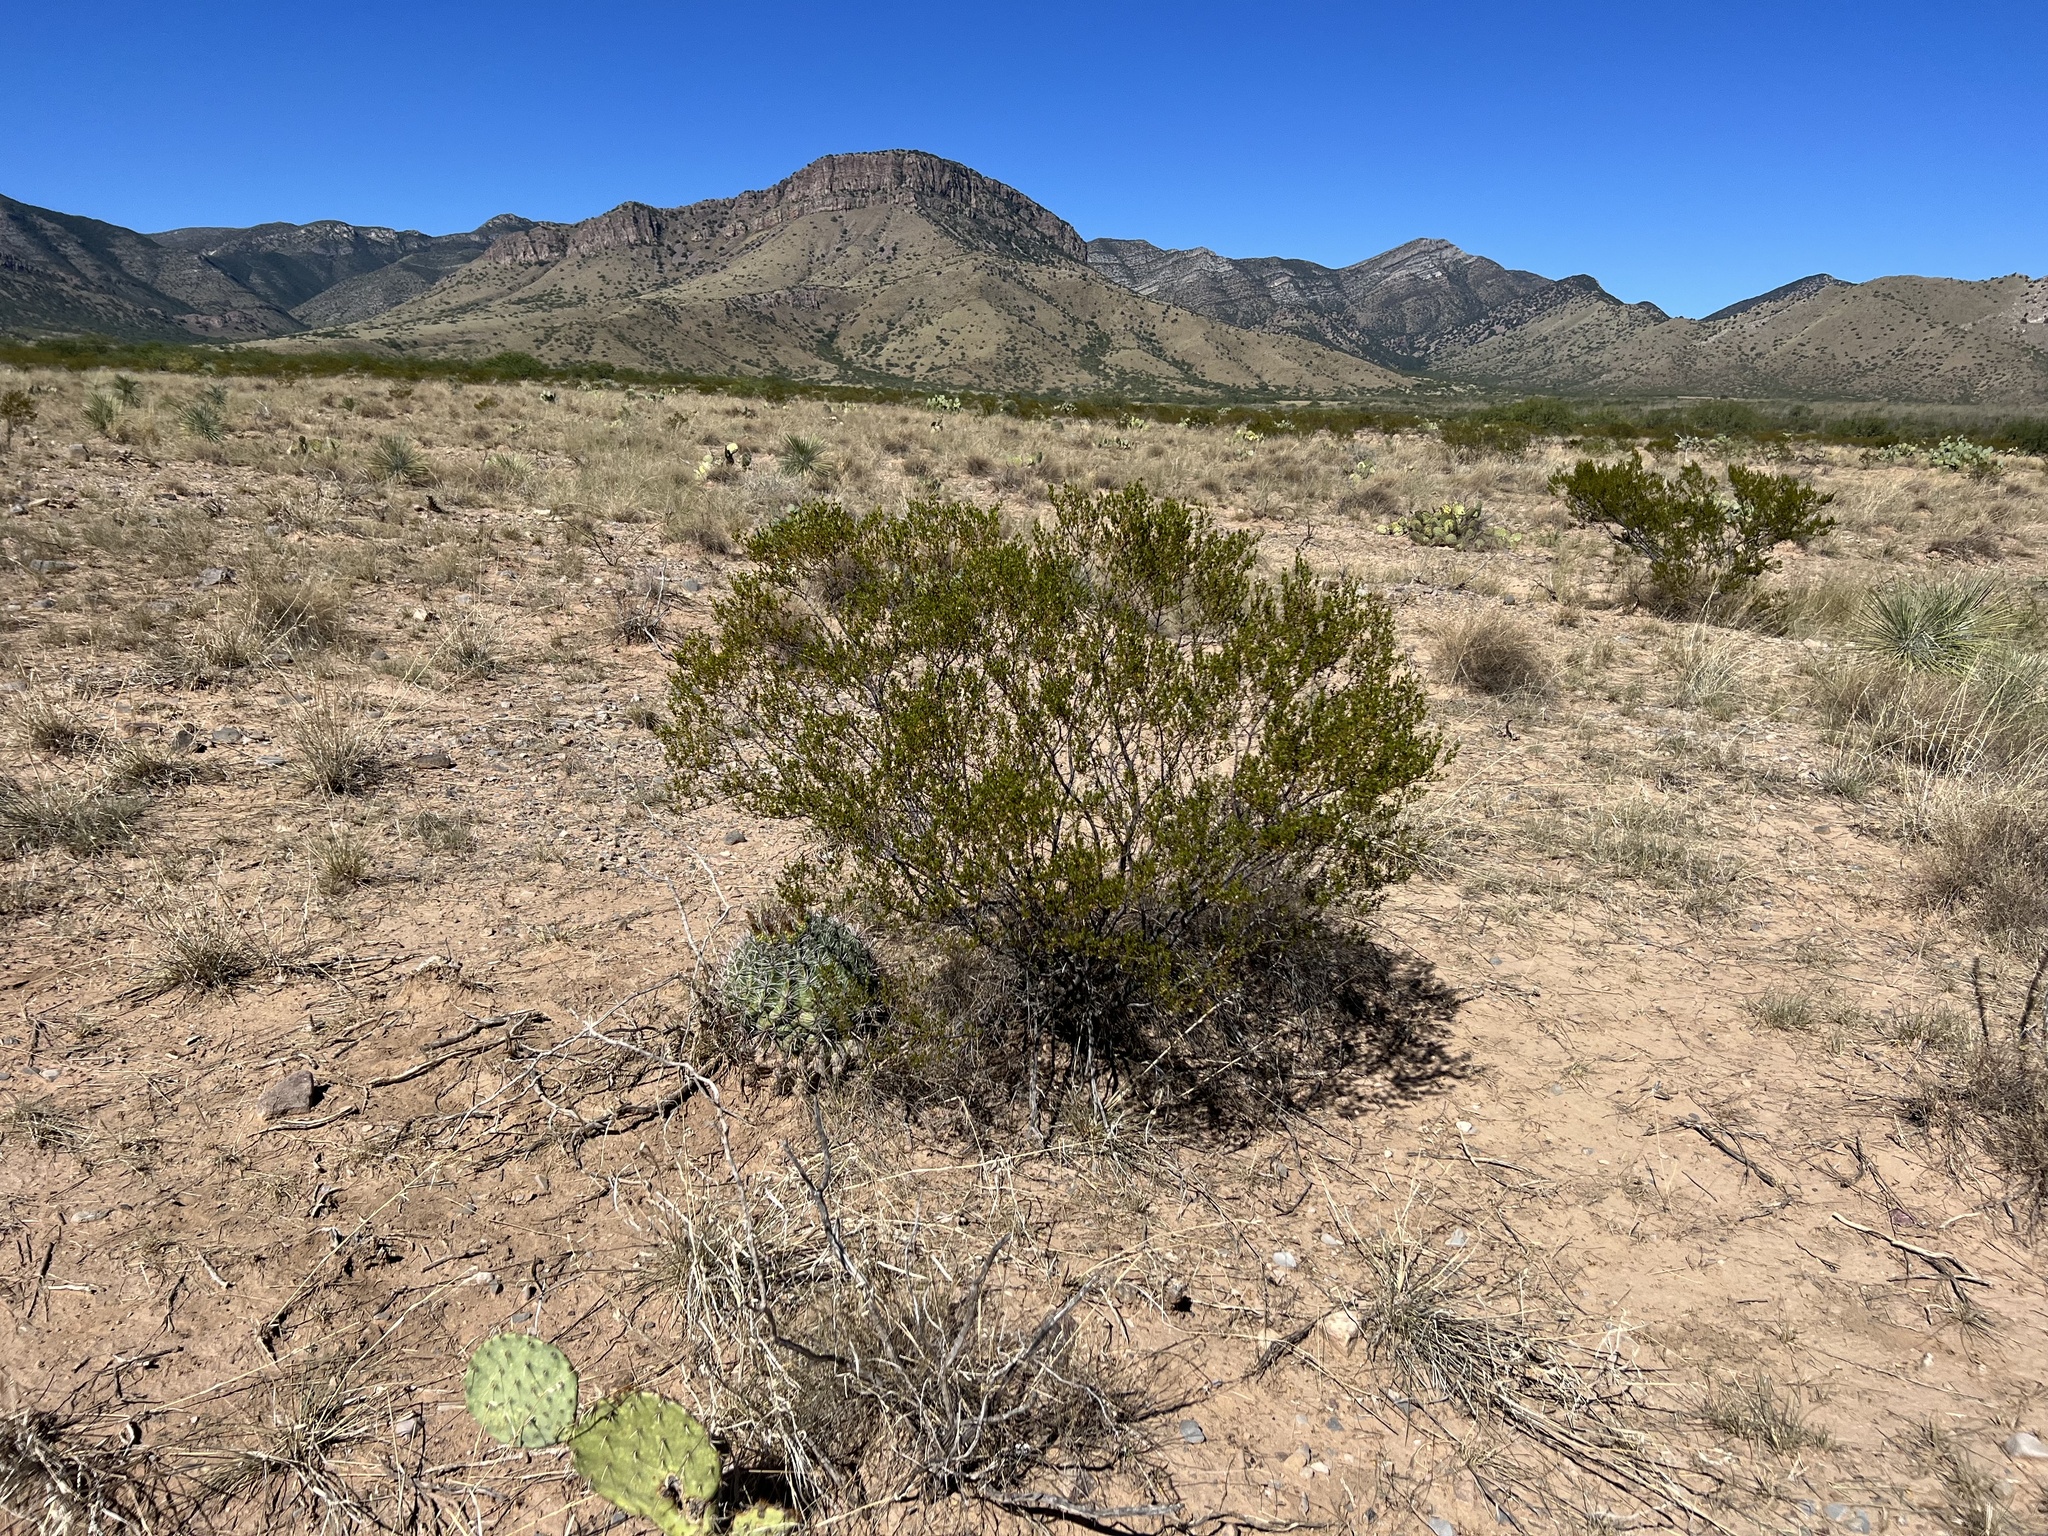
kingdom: Plantae
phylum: Tracheophyta
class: Magnoliopsida
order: Zygophyllales
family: Zygophyllaceae
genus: Larrea
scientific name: Larrea tridentata
